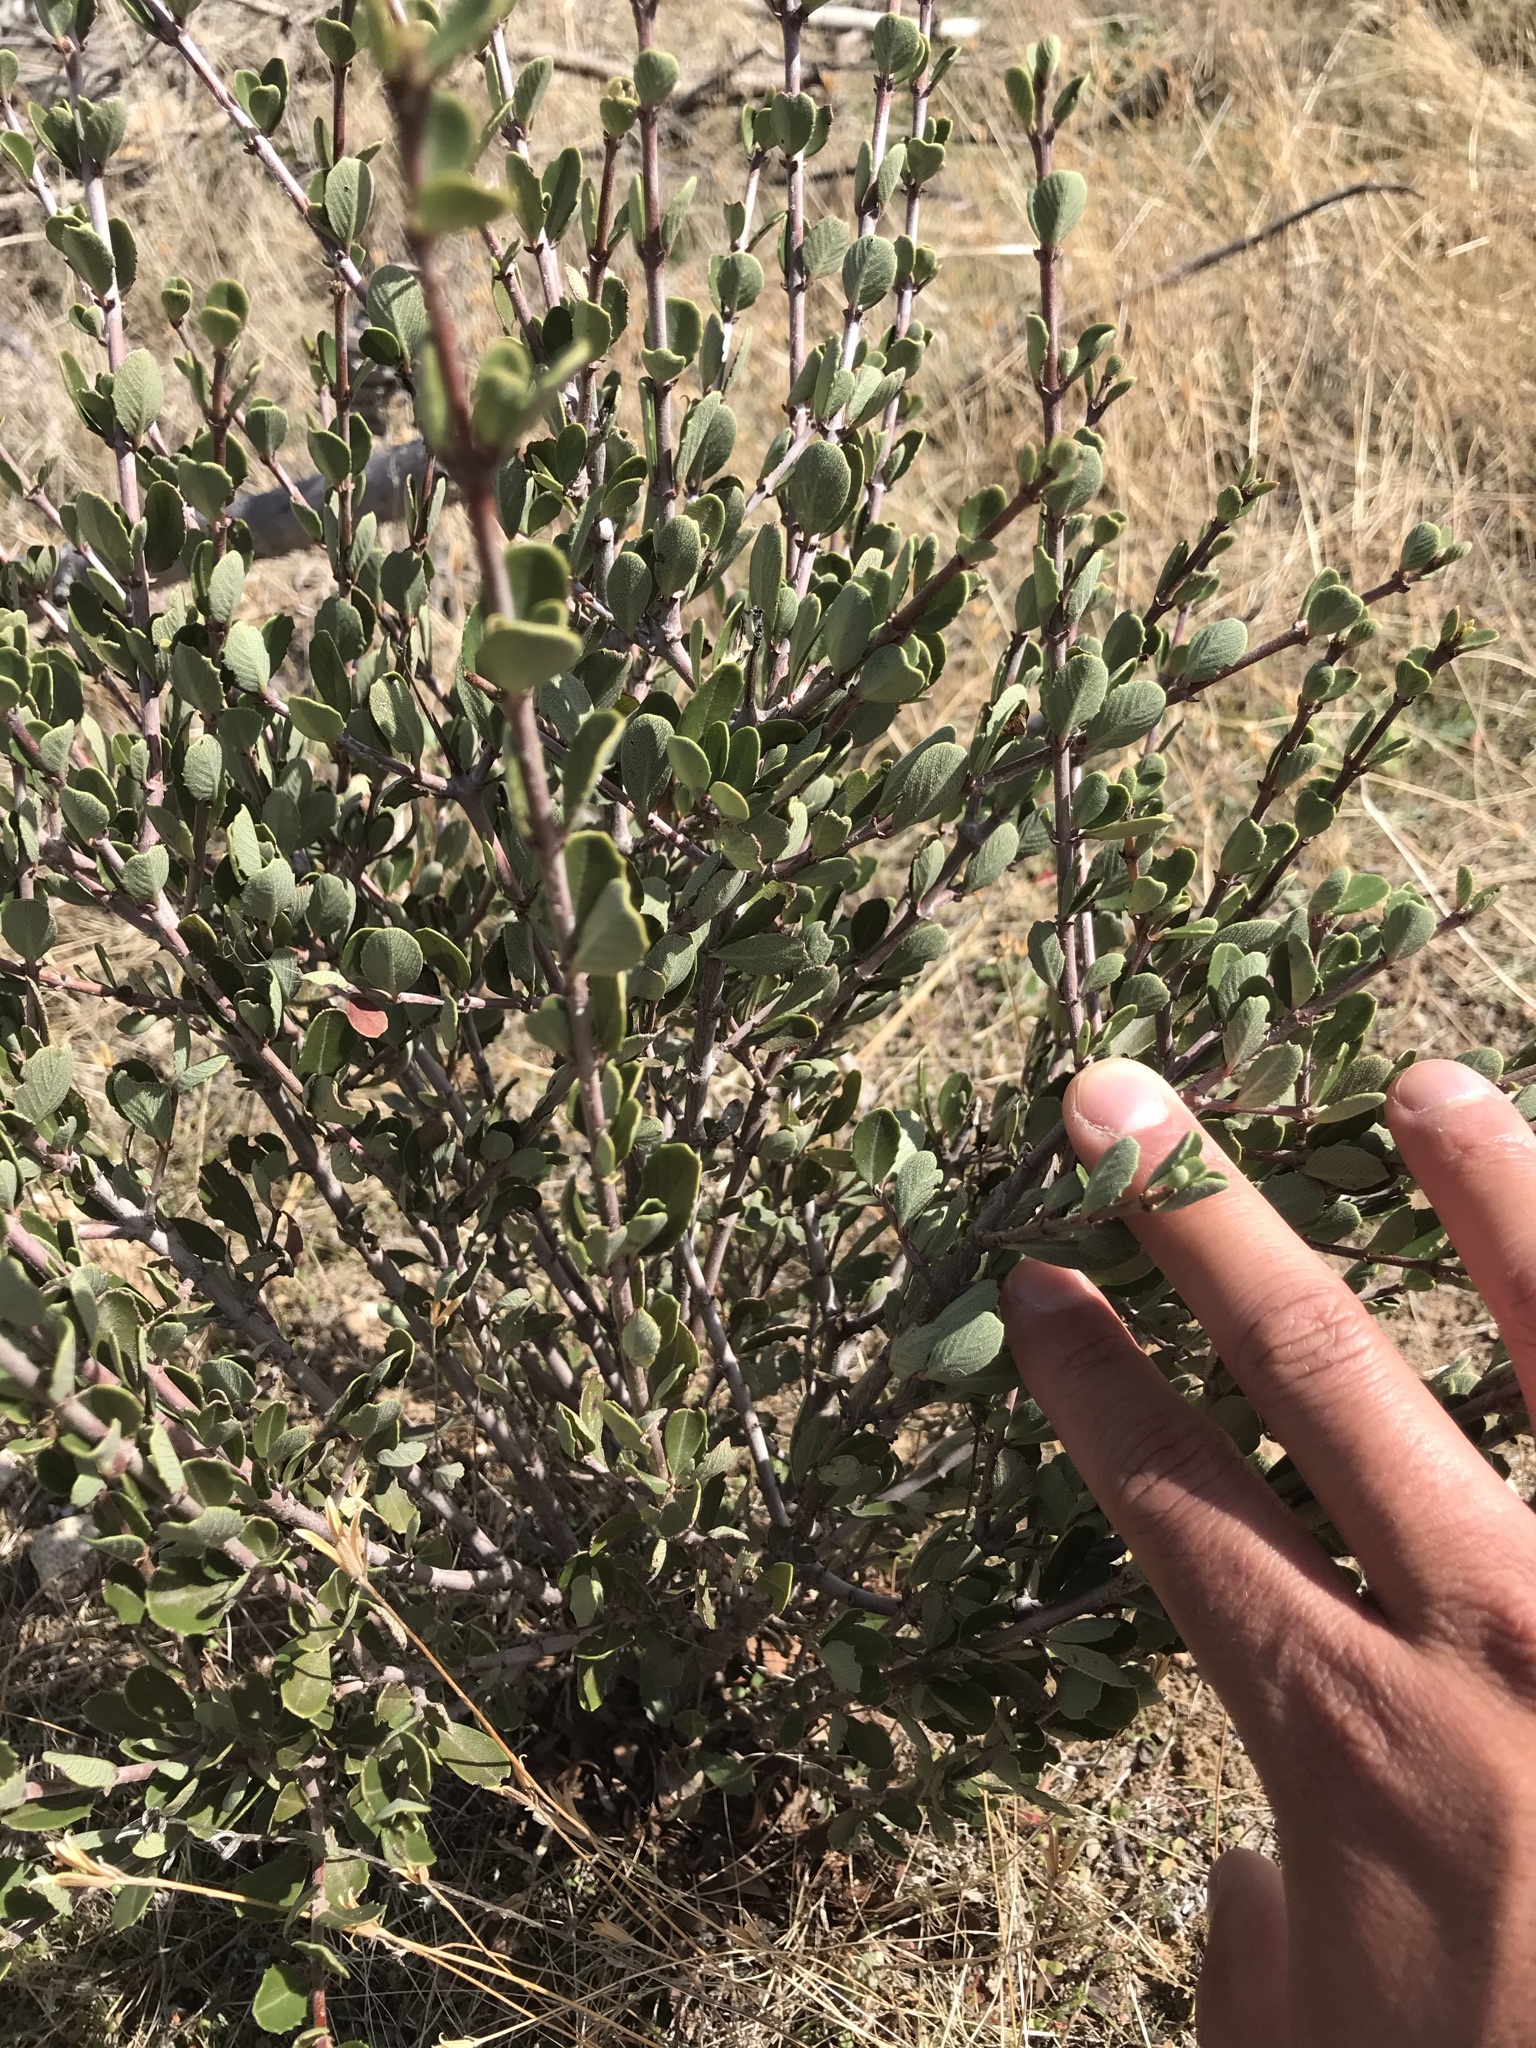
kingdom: Plantae
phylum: Tracheophyta
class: Magnoliopsida
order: Rosales
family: Rosaceae
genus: Cercocarpus
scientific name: Cercocarpus betuloides
